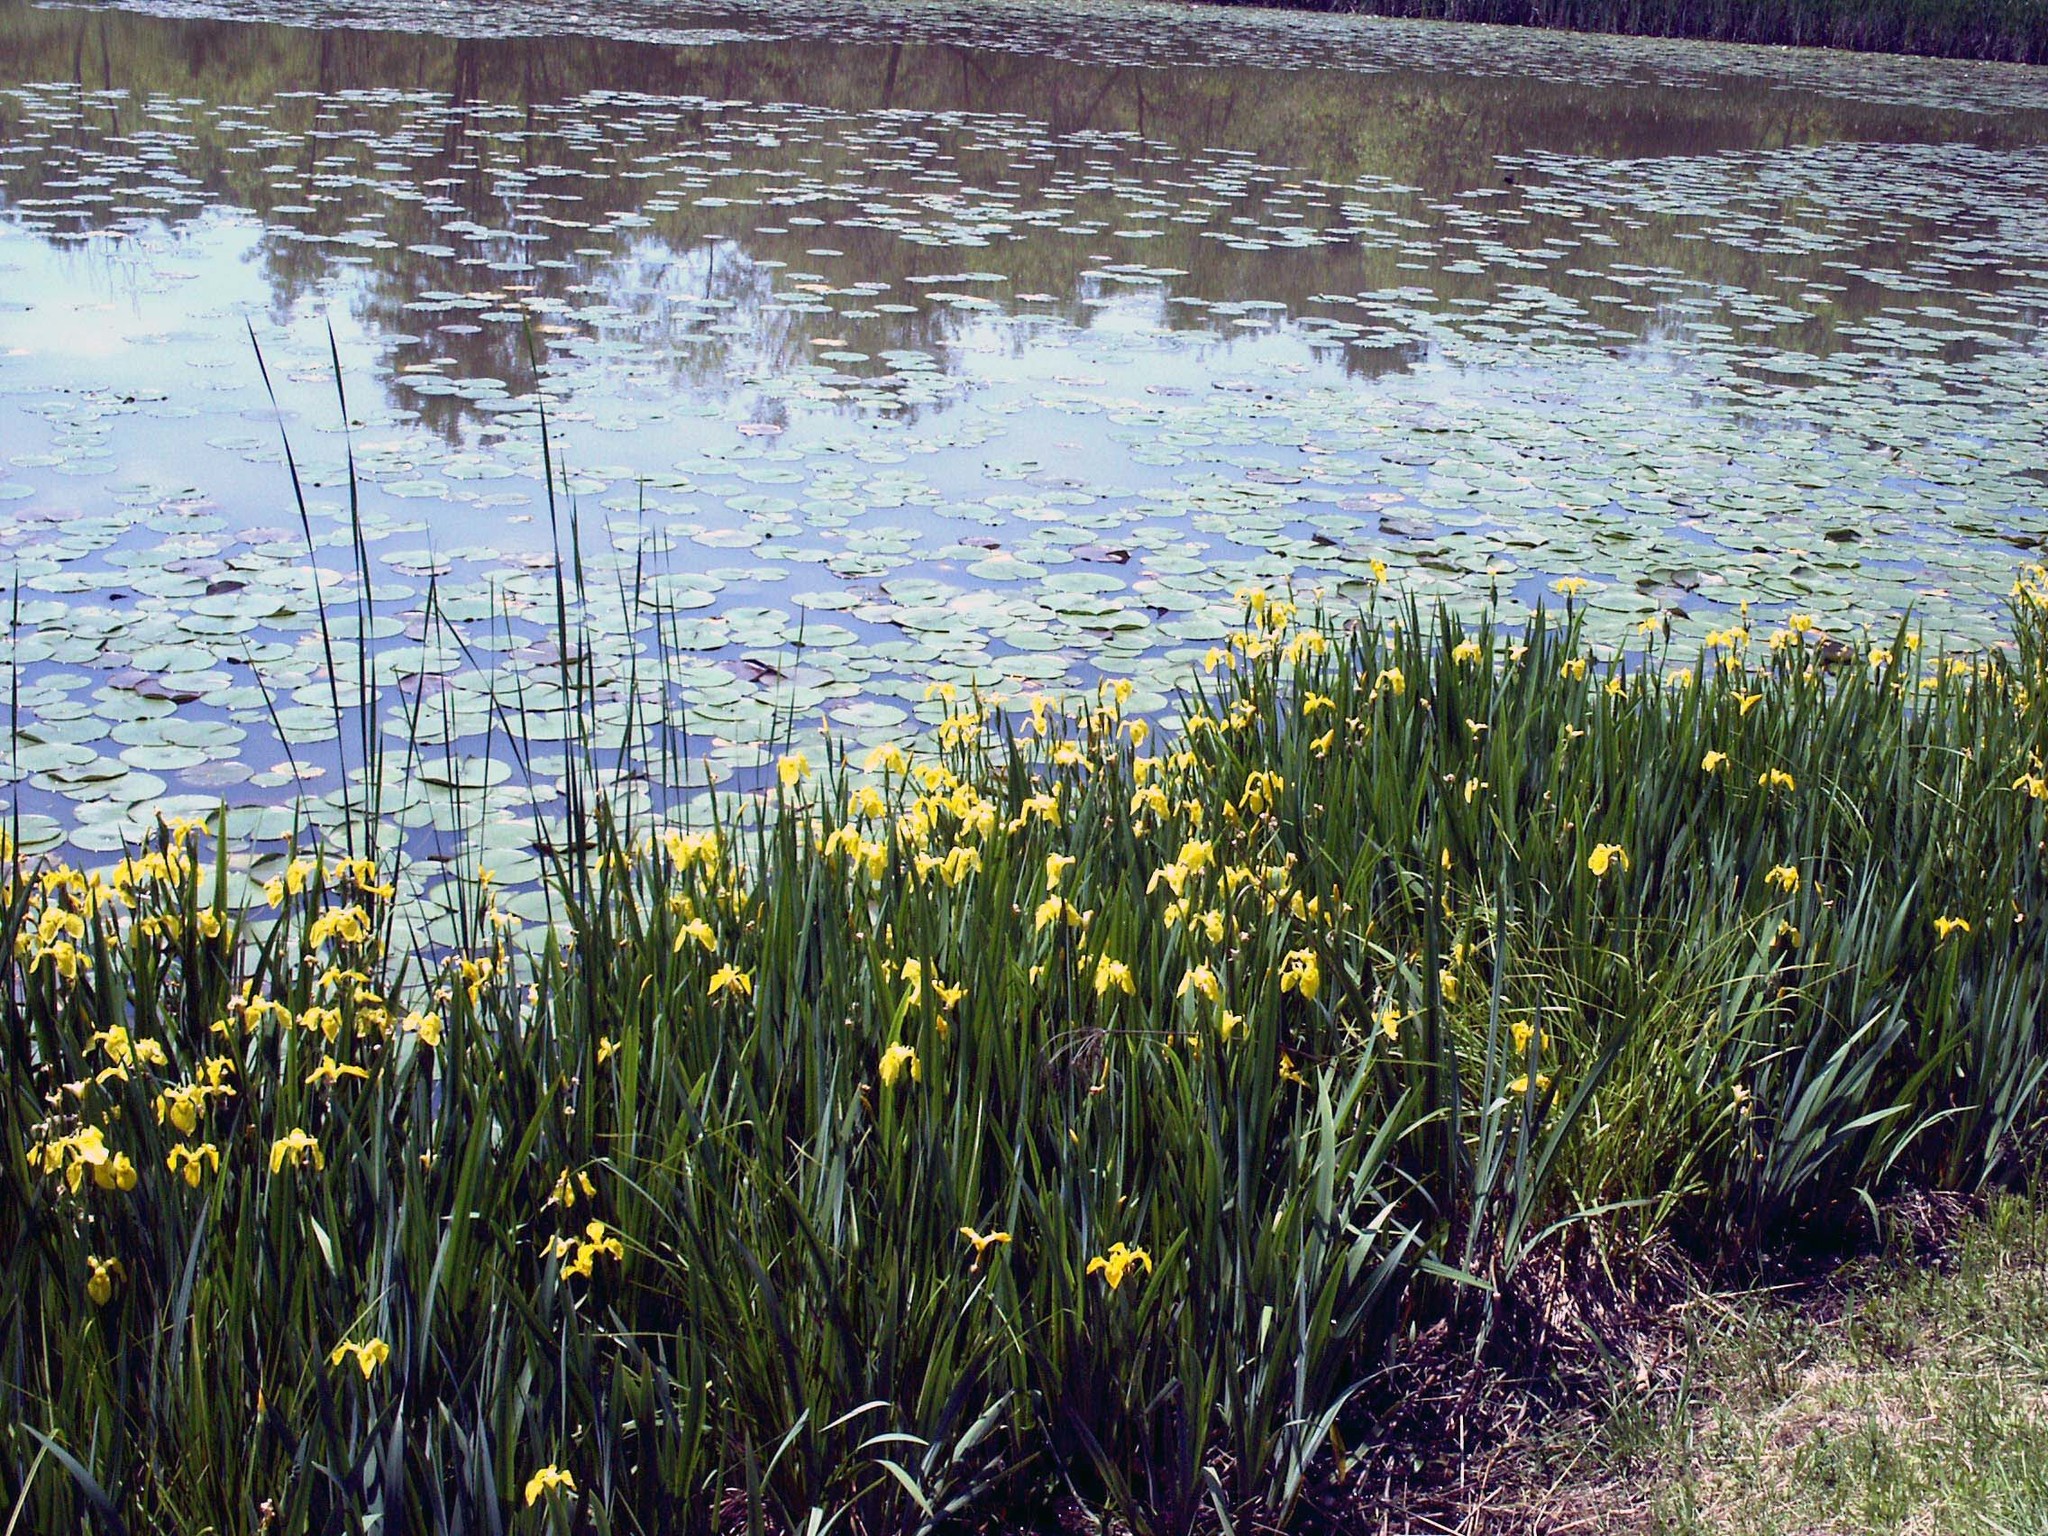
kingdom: Plantae
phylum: Tracheophyta
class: Liliopsida
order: Asparagales
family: Iridaceae
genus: Iris
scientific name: Iris pseudacorus
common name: Yellow flag
